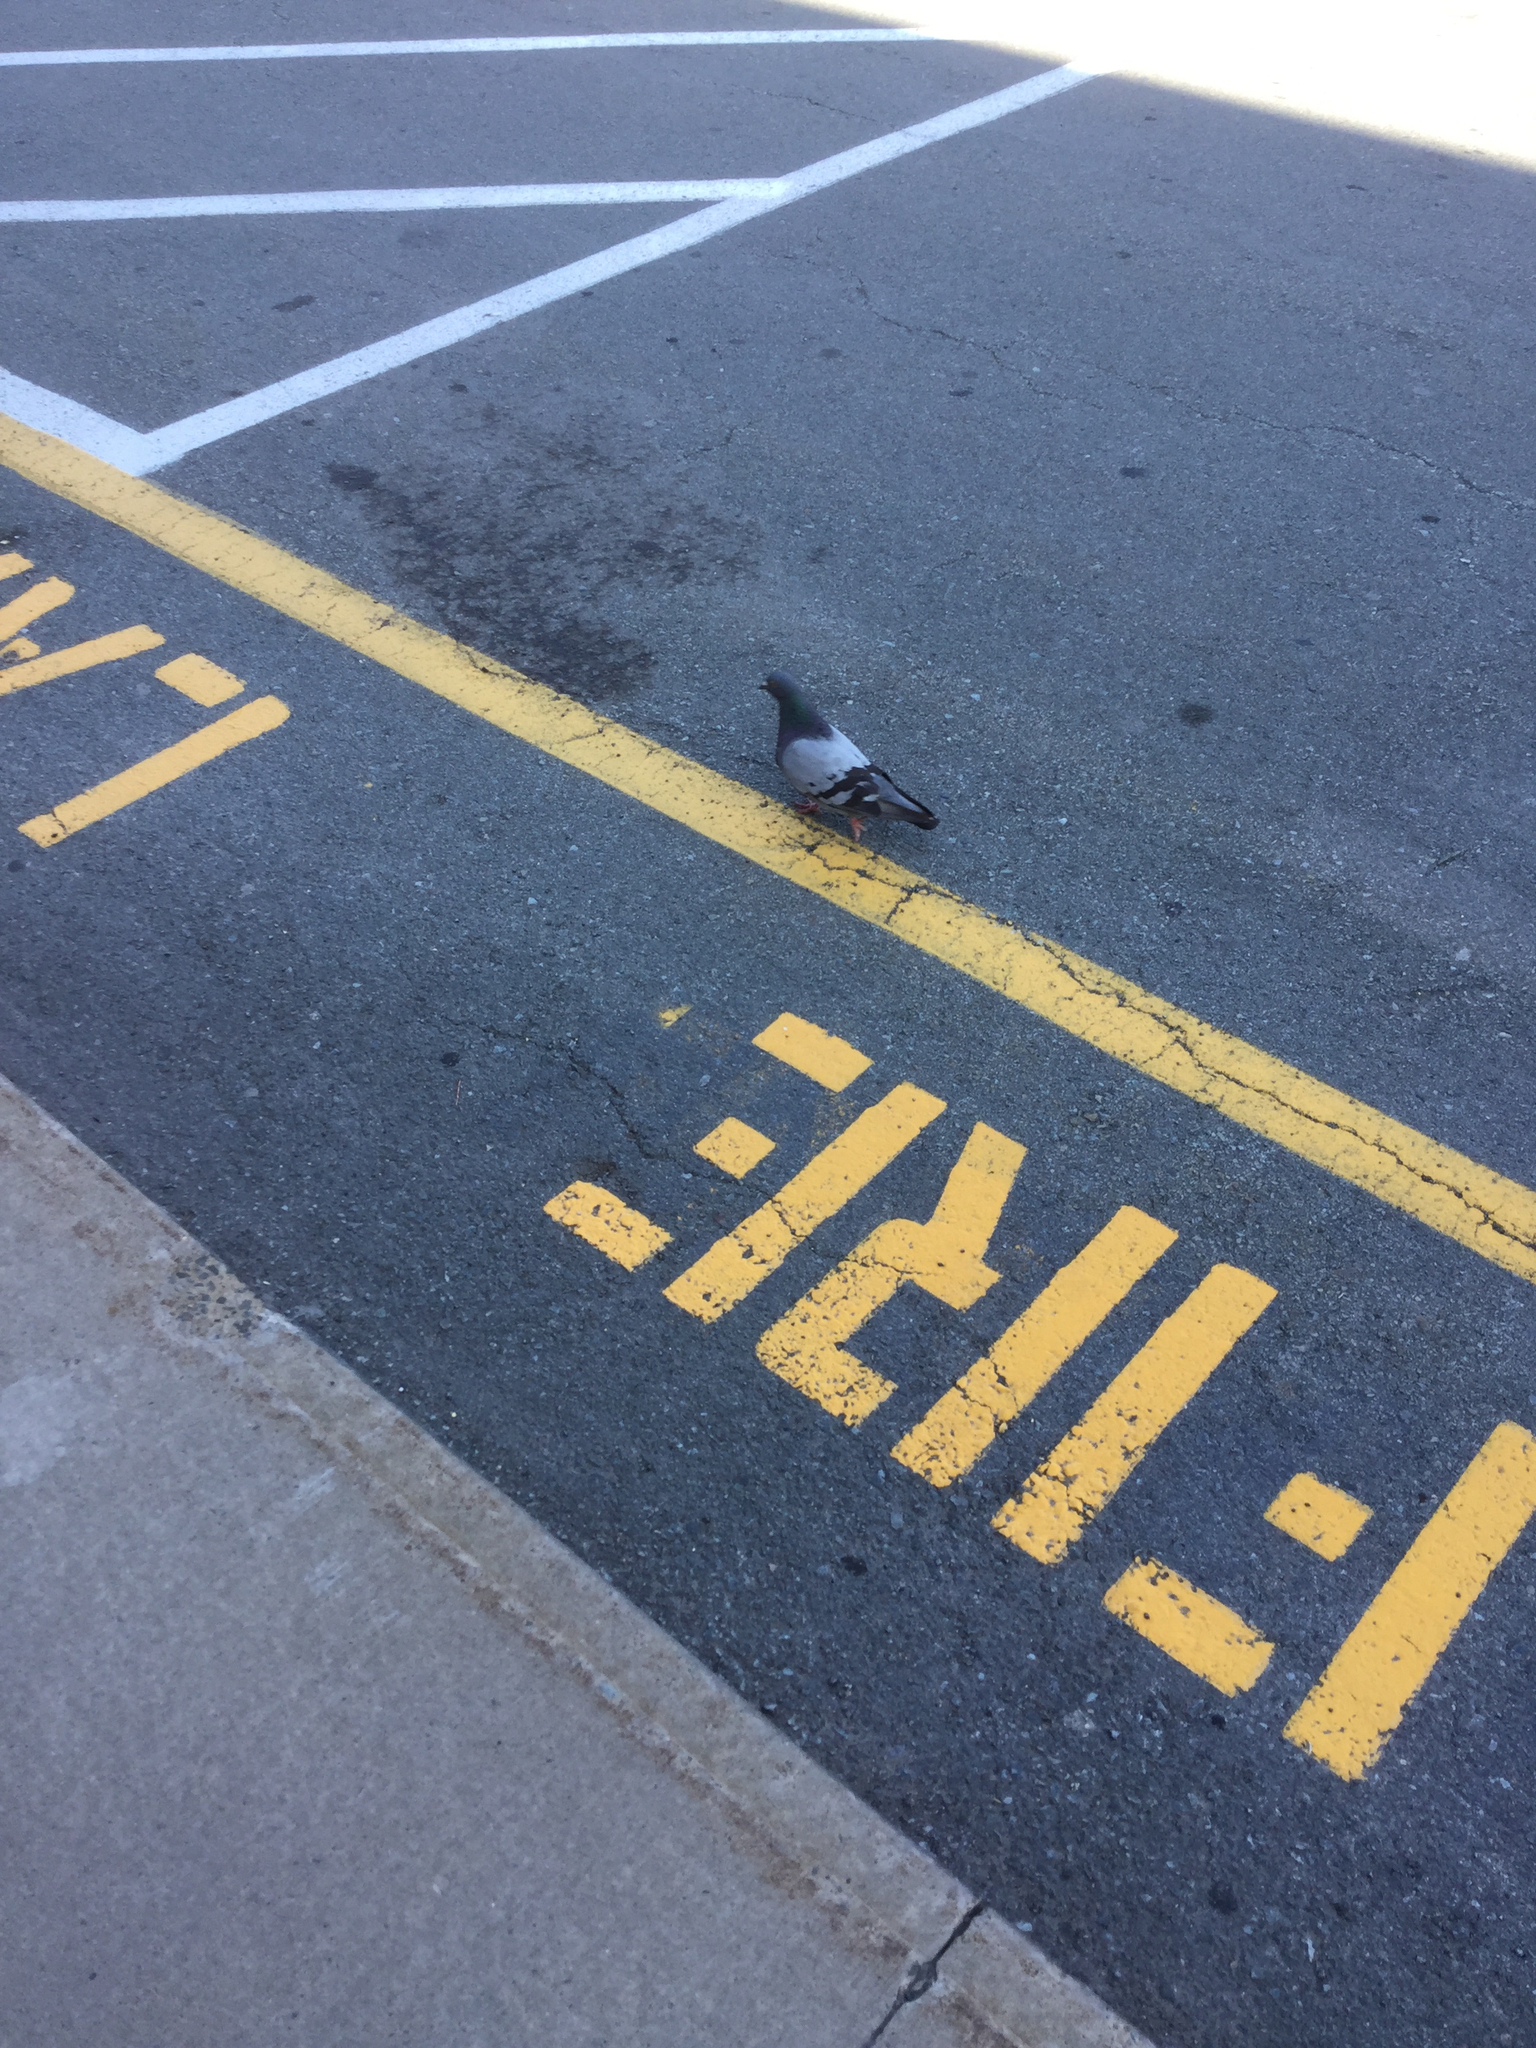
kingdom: Animalia
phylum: Chordata
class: Aves
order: Columbiformes
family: Columbidae
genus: Columba
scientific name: Columba livia
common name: Rock pigeon
